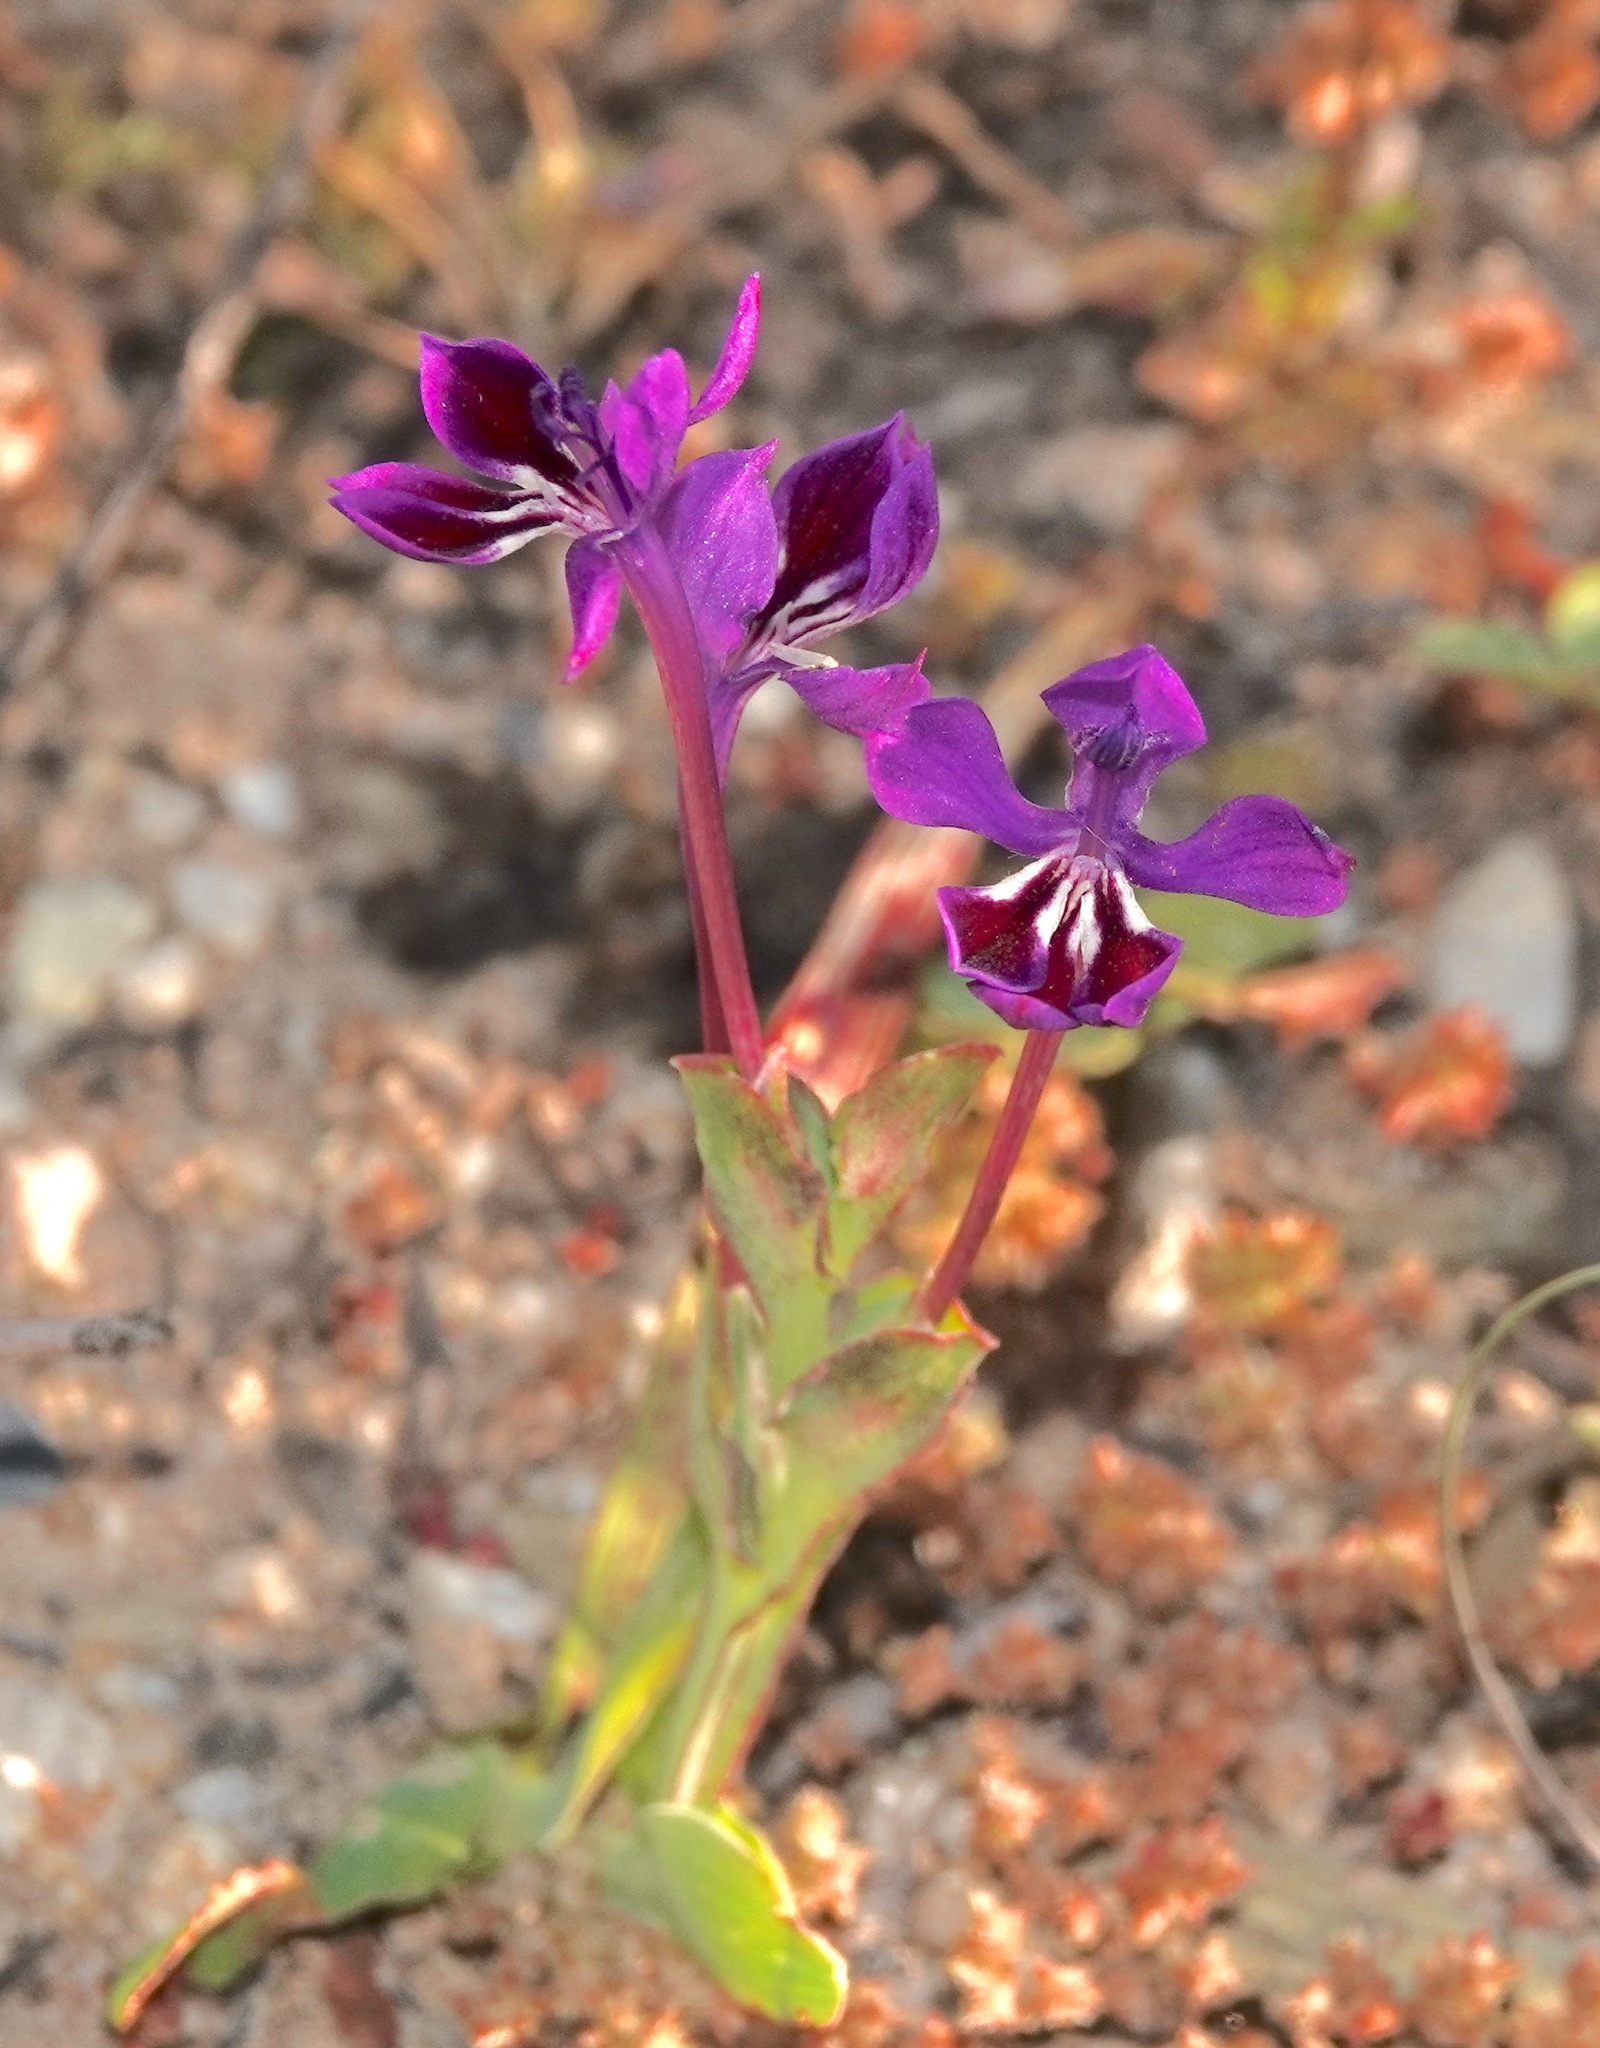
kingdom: Plantae
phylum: Tracheophyta
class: Liliopsida
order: Asparagales
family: Iridaceae
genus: Lapeirousia
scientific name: Lapeirousia jacquinii
